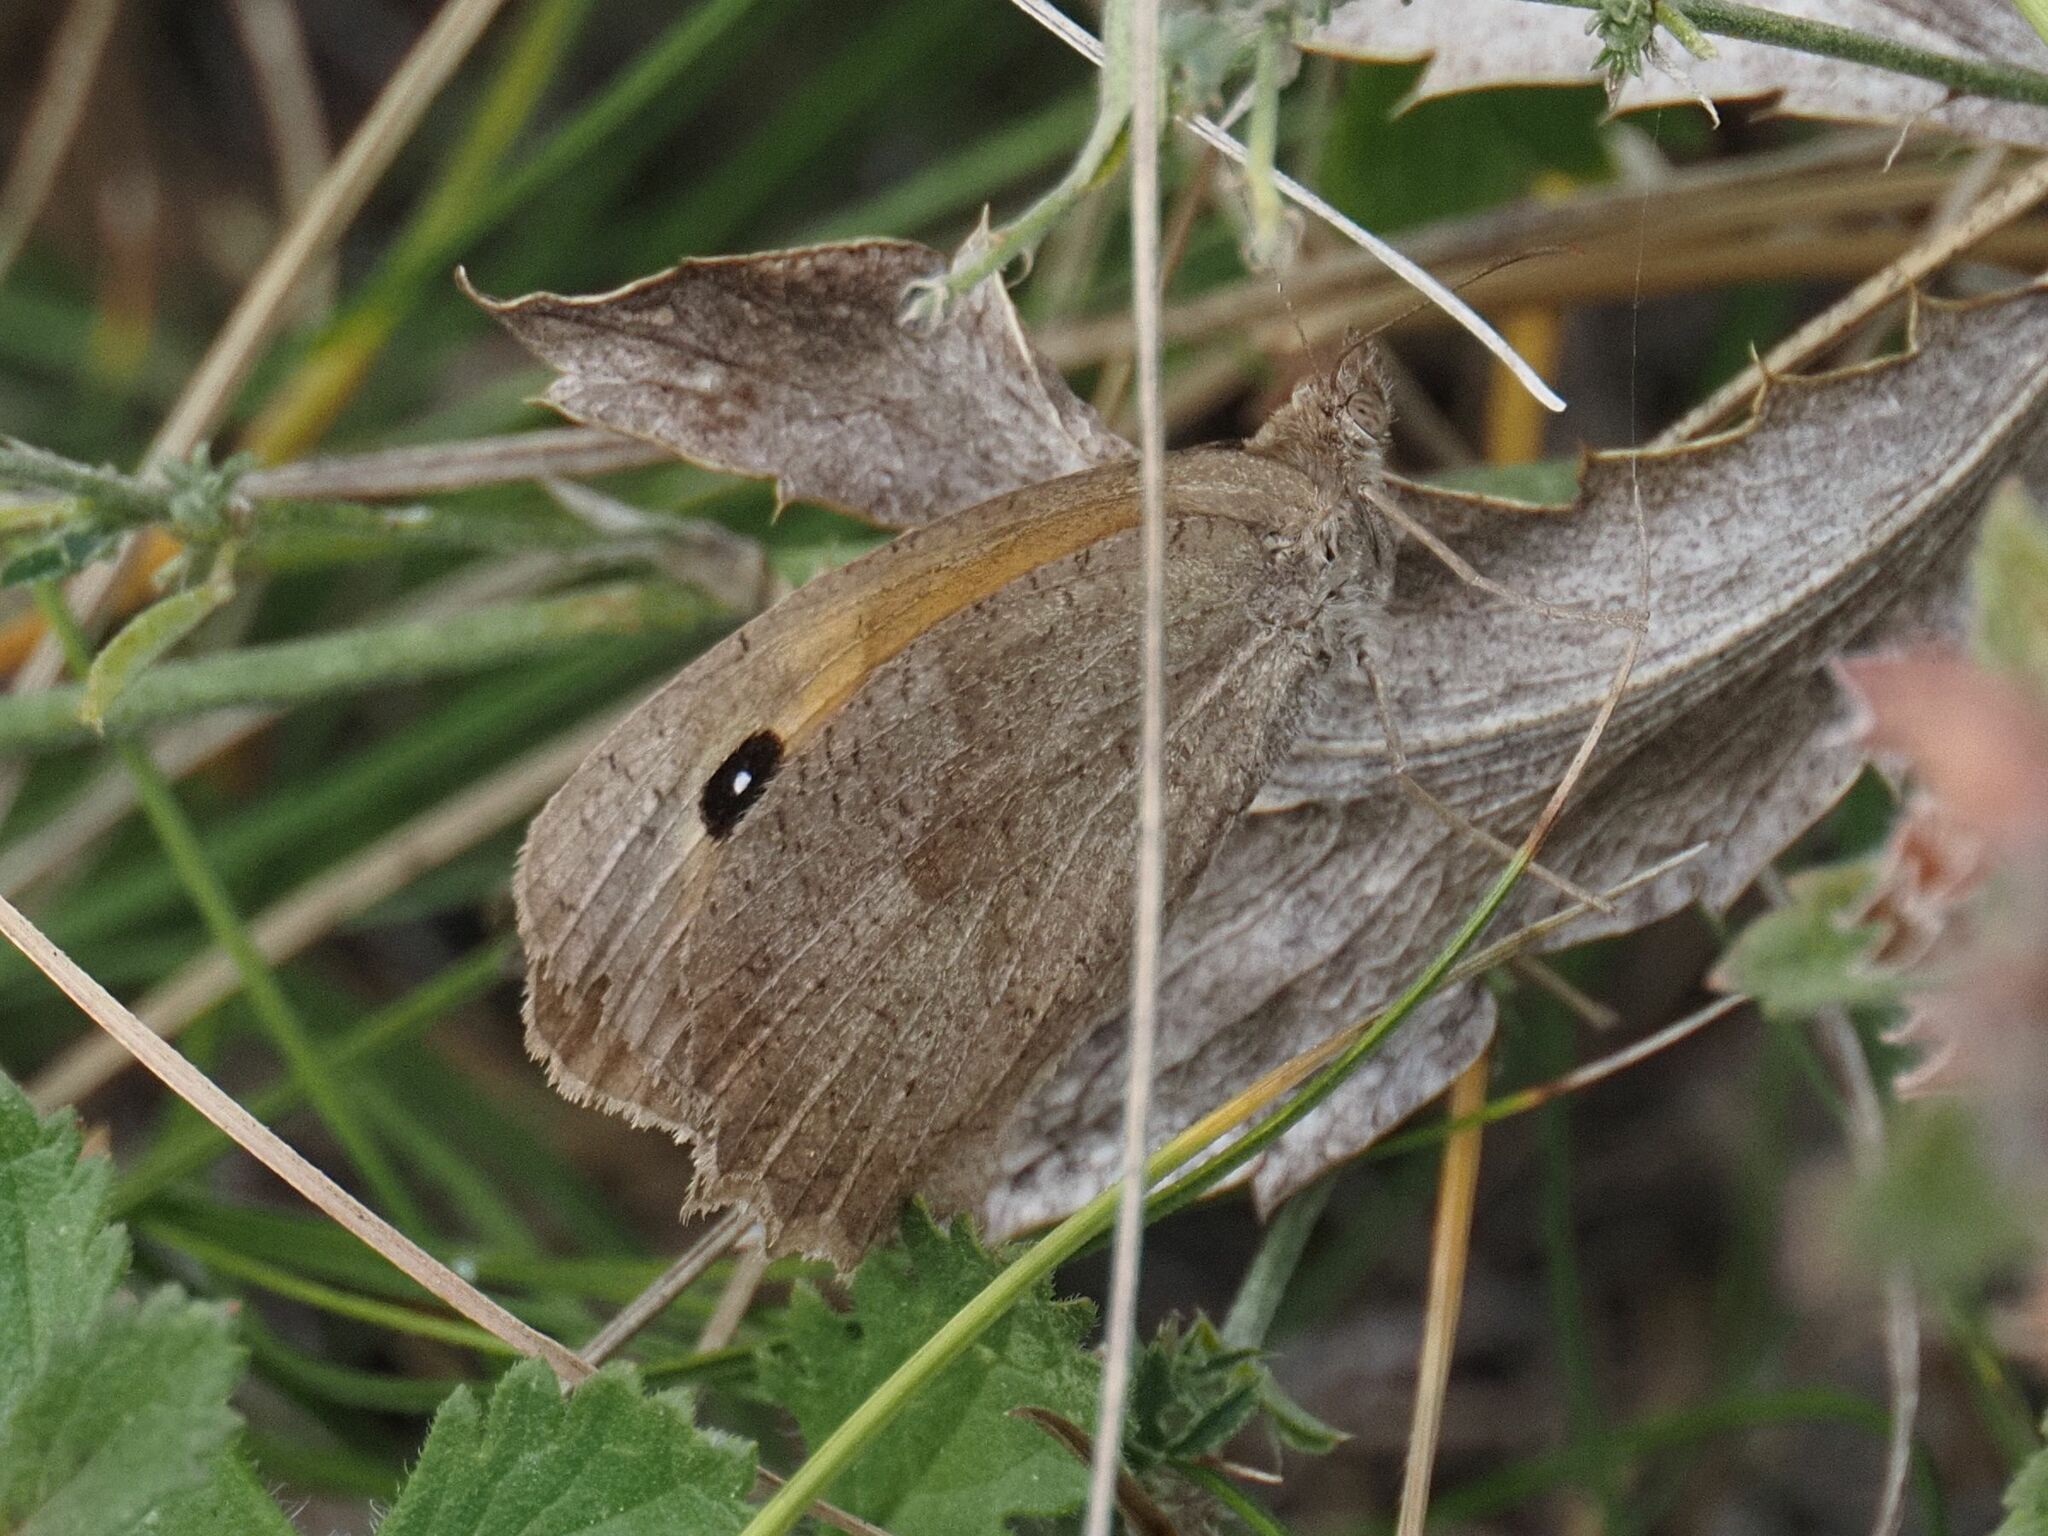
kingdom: Animalia
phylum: Arthropoda
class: Insecta
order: Lepidoptera
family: Nymphalidae
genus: Maniola
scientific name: Maniola jurtina
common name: Meadow brown
